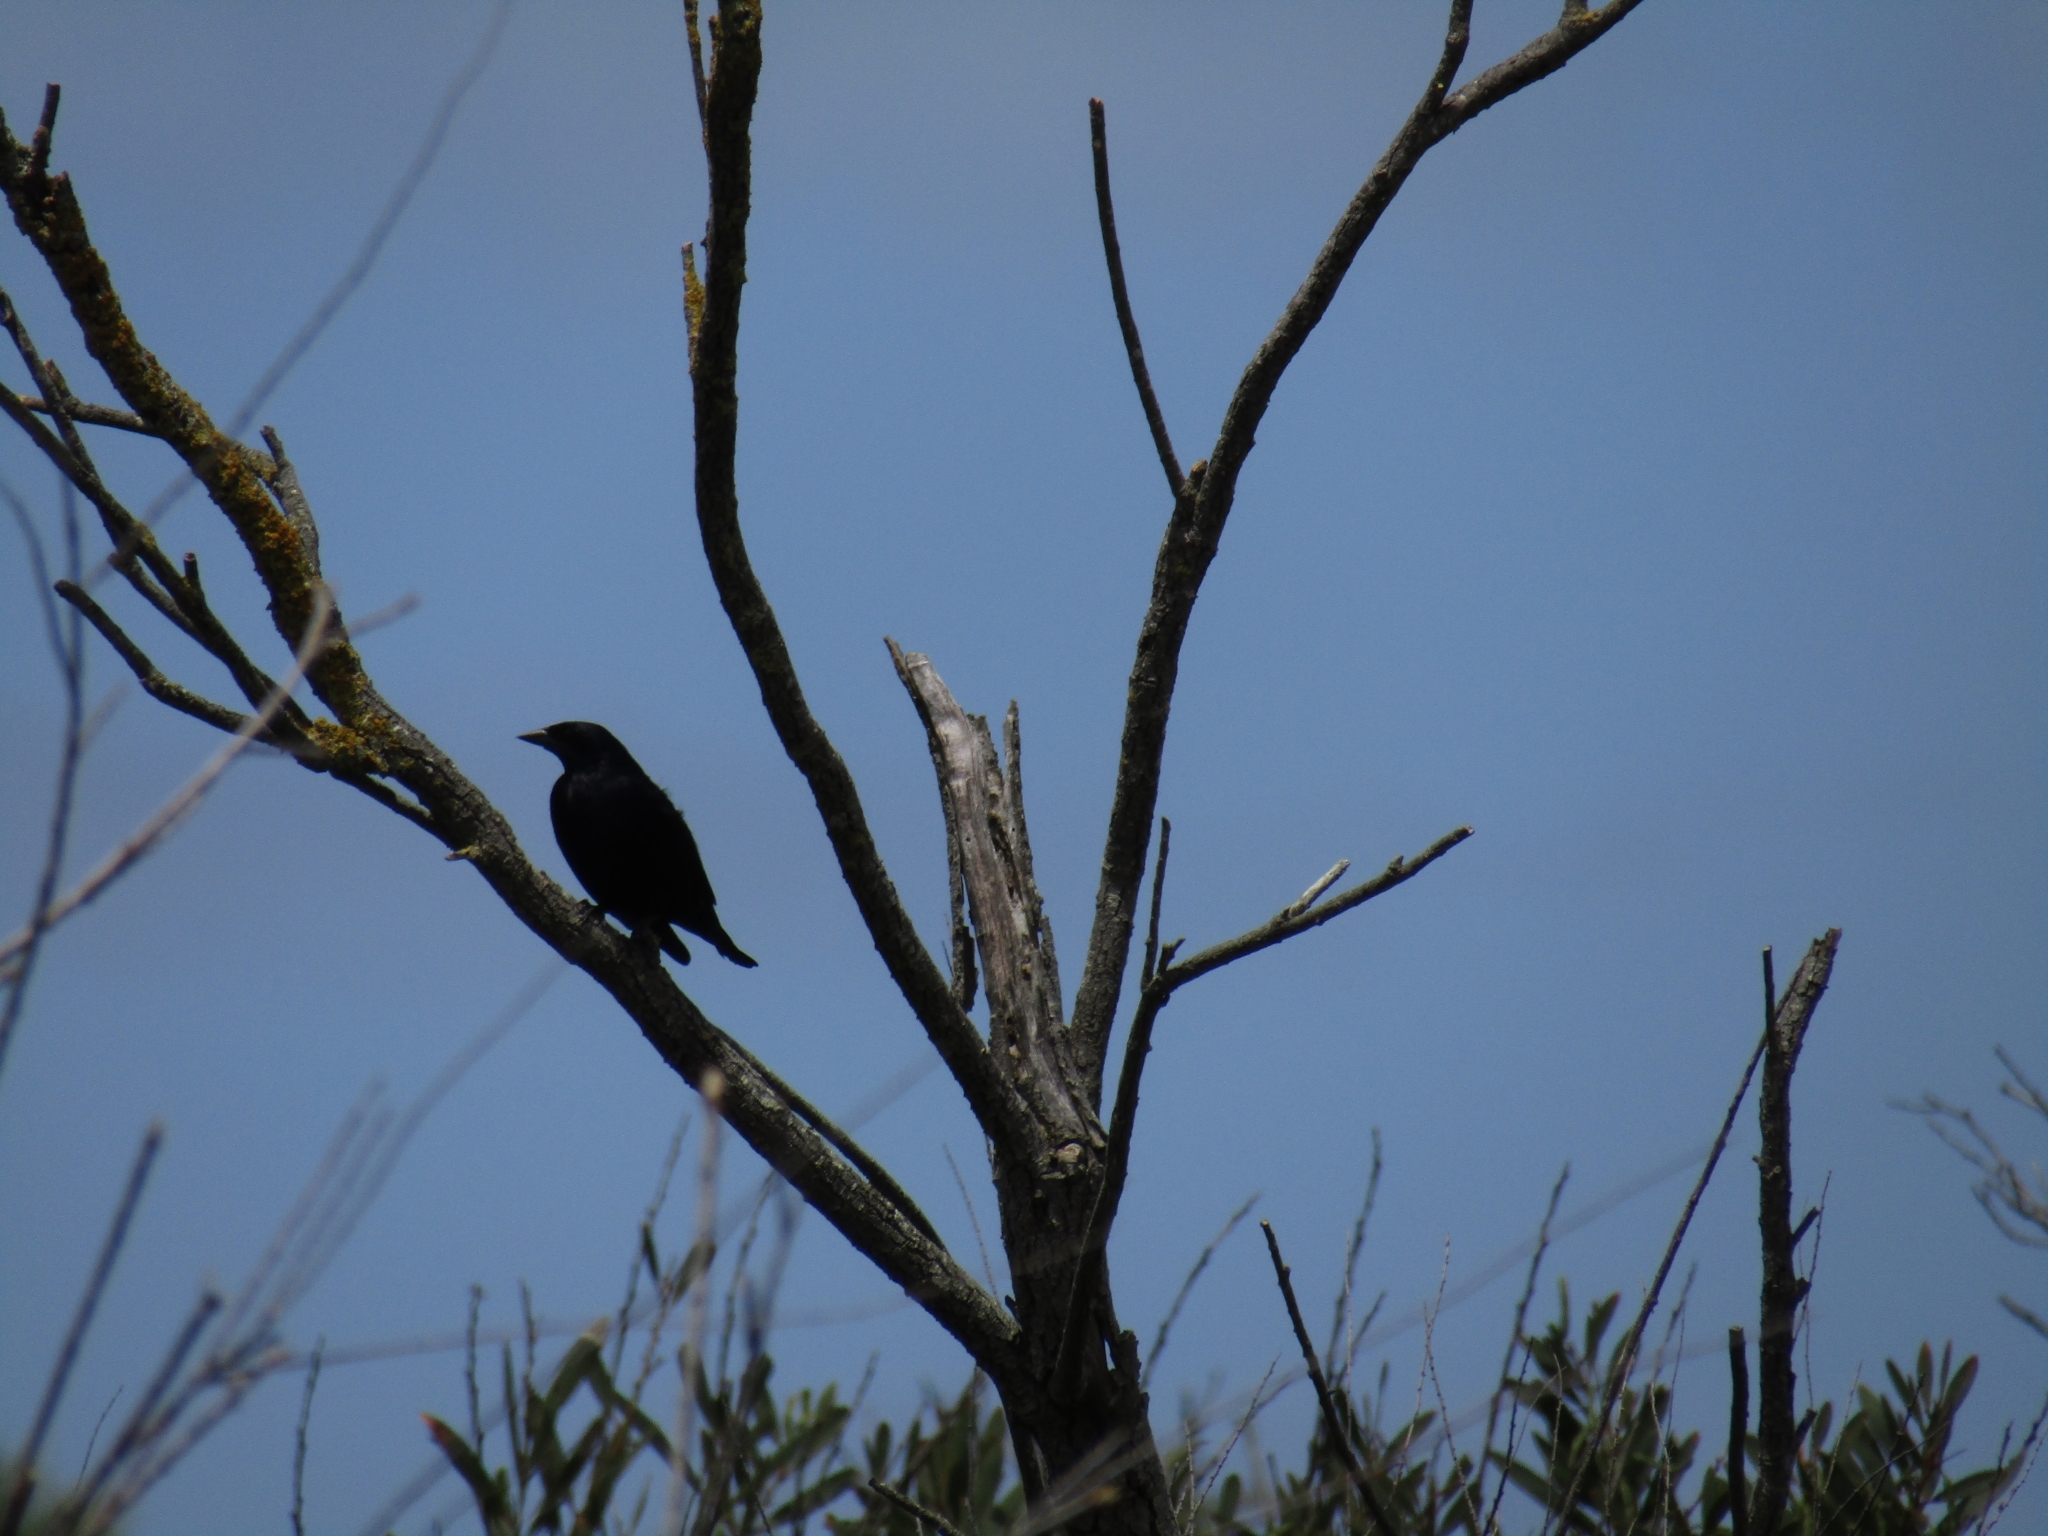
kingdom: Animalia
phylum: Chordata
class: Aves
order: Passeriformes
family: Icteridae
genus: Molothrus
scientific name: Molothrus bonariensis
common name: Shiny cowbird
